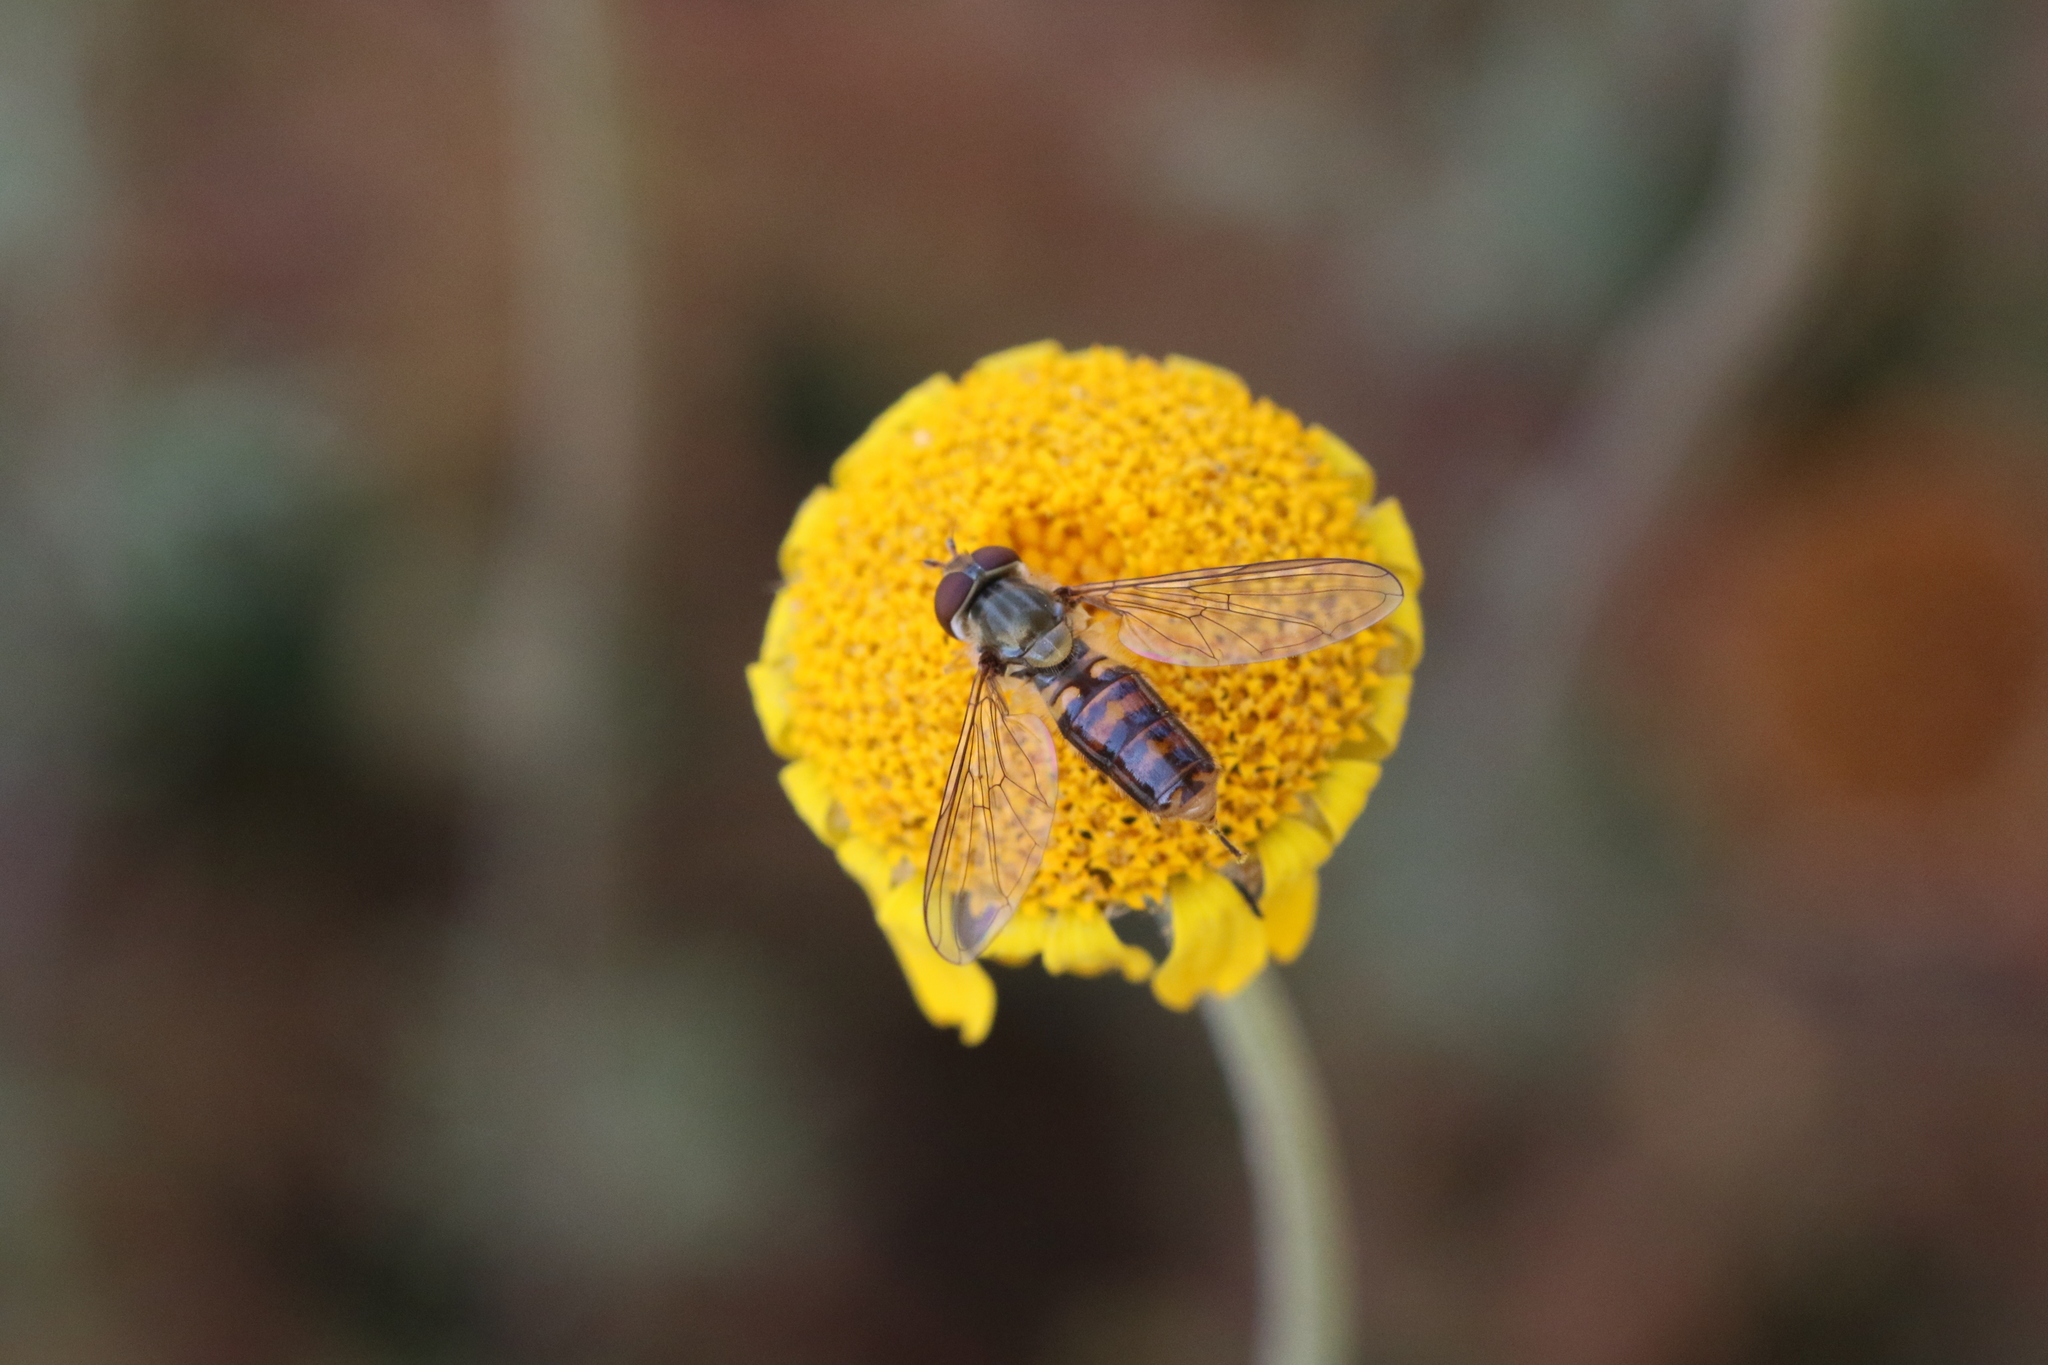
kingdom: Animalia
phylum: Arthropoda
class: Insecta
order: Diptera
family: Syrphidae
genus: Episyrphus
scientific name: Episyrphus balteatus
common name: Marmalade hoverfly
